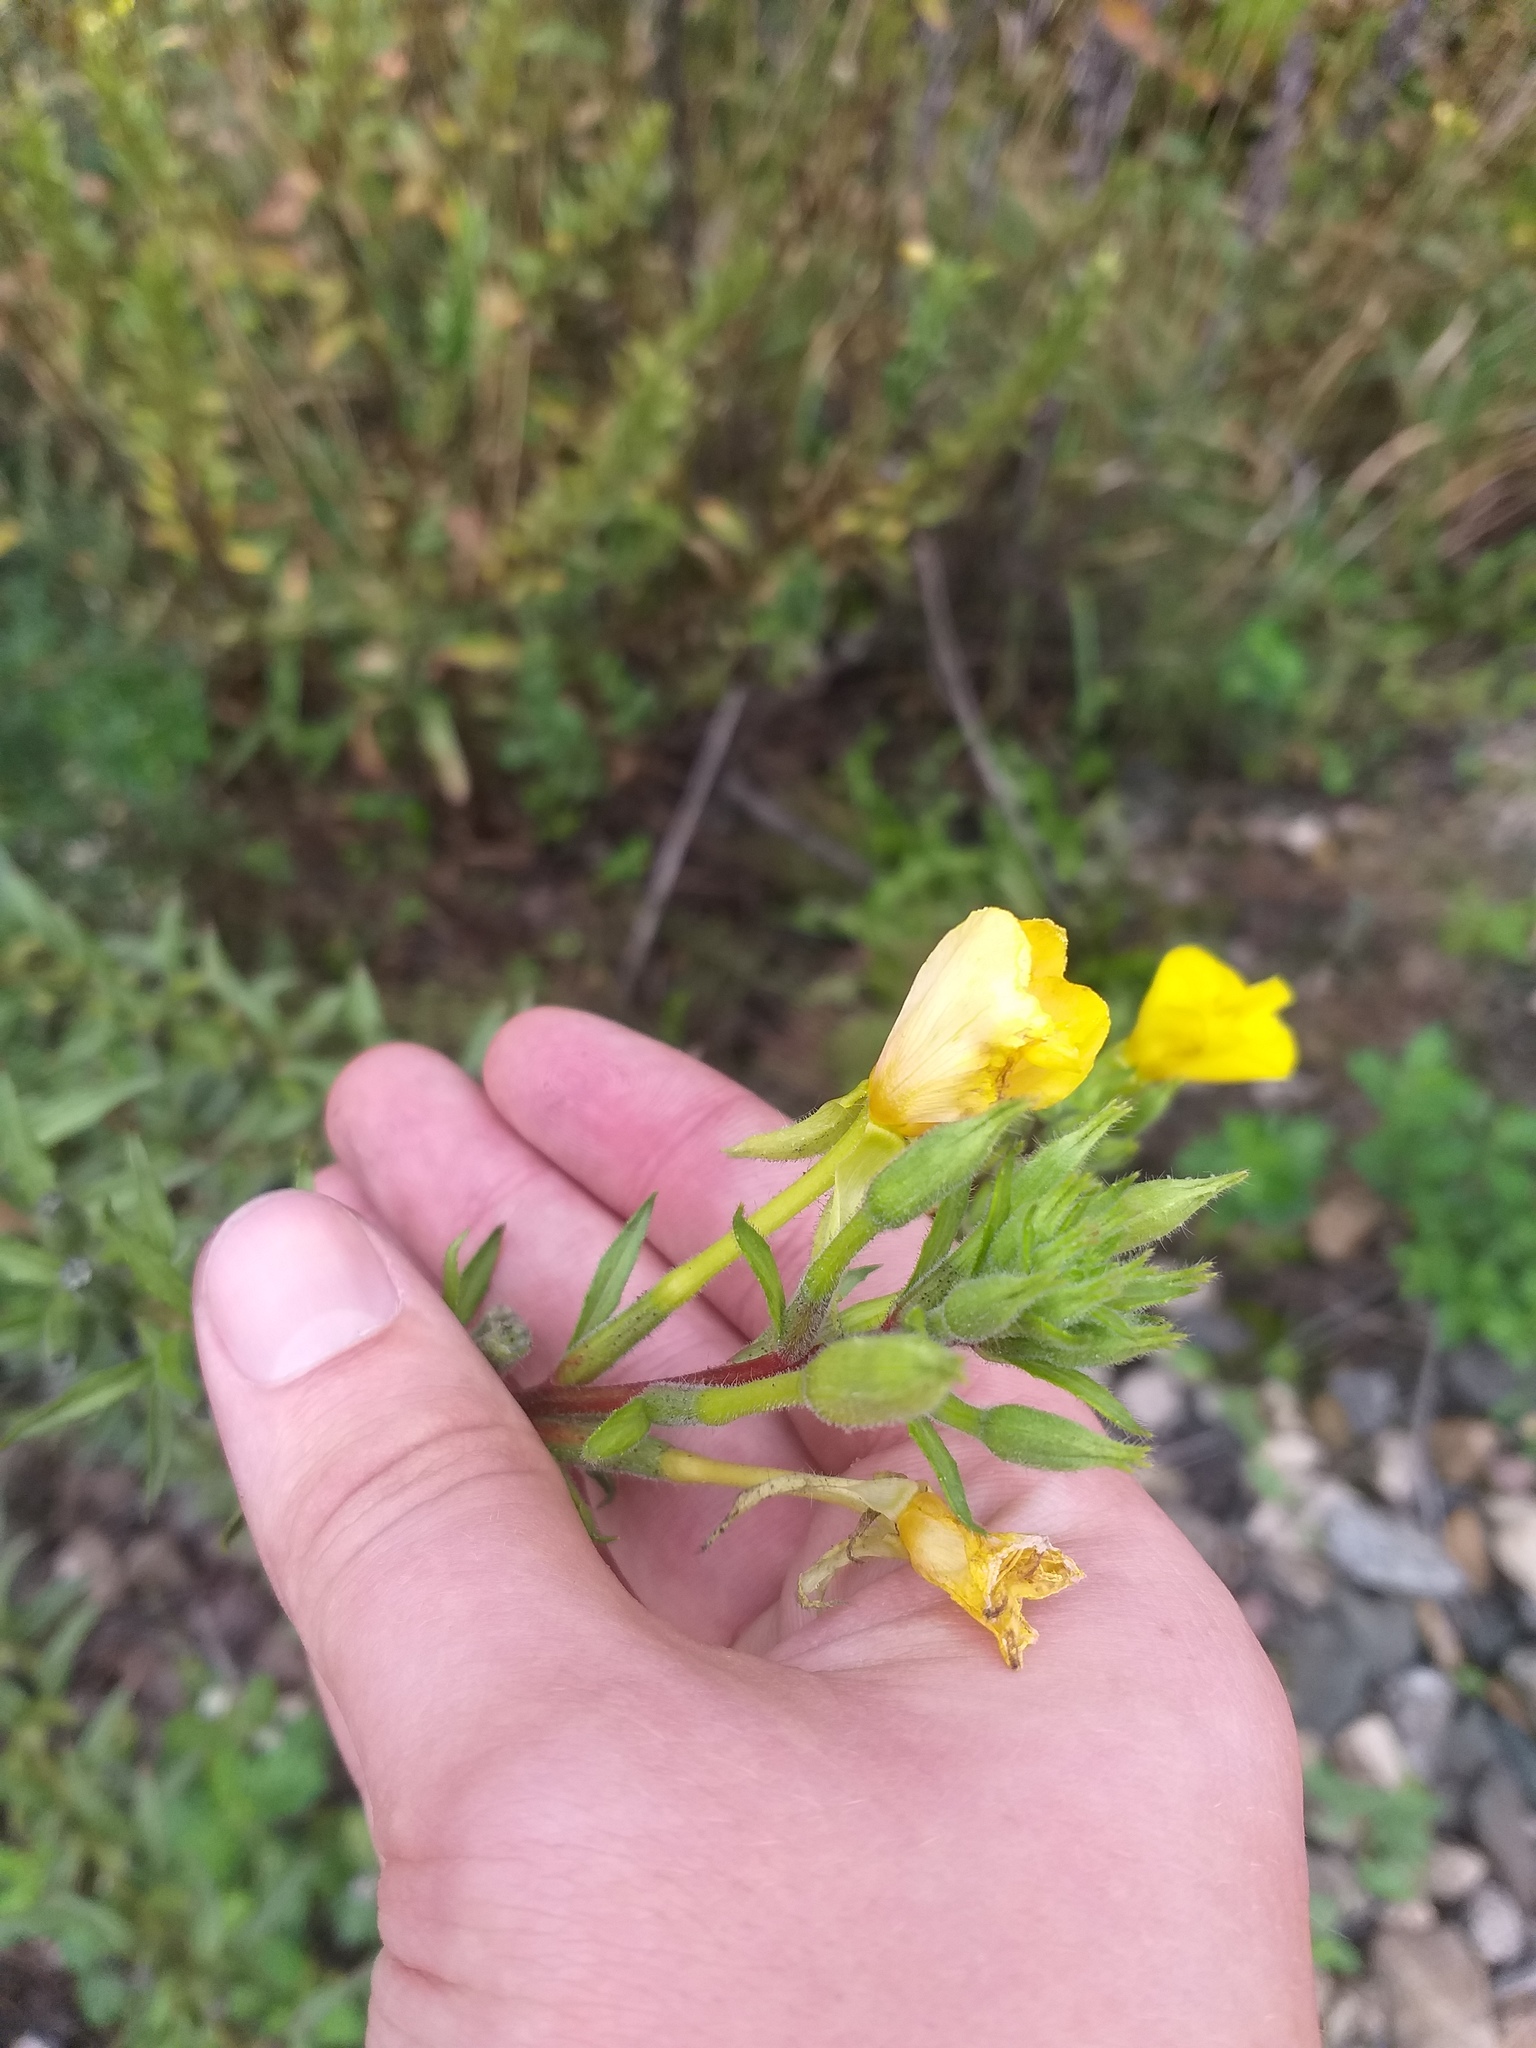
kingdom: Plantae
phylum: Tracheophyta
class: Magnoliopsida
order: Myrtales
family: Onagraceae
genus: Oenothera
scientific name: Oenothera rubricaulis
